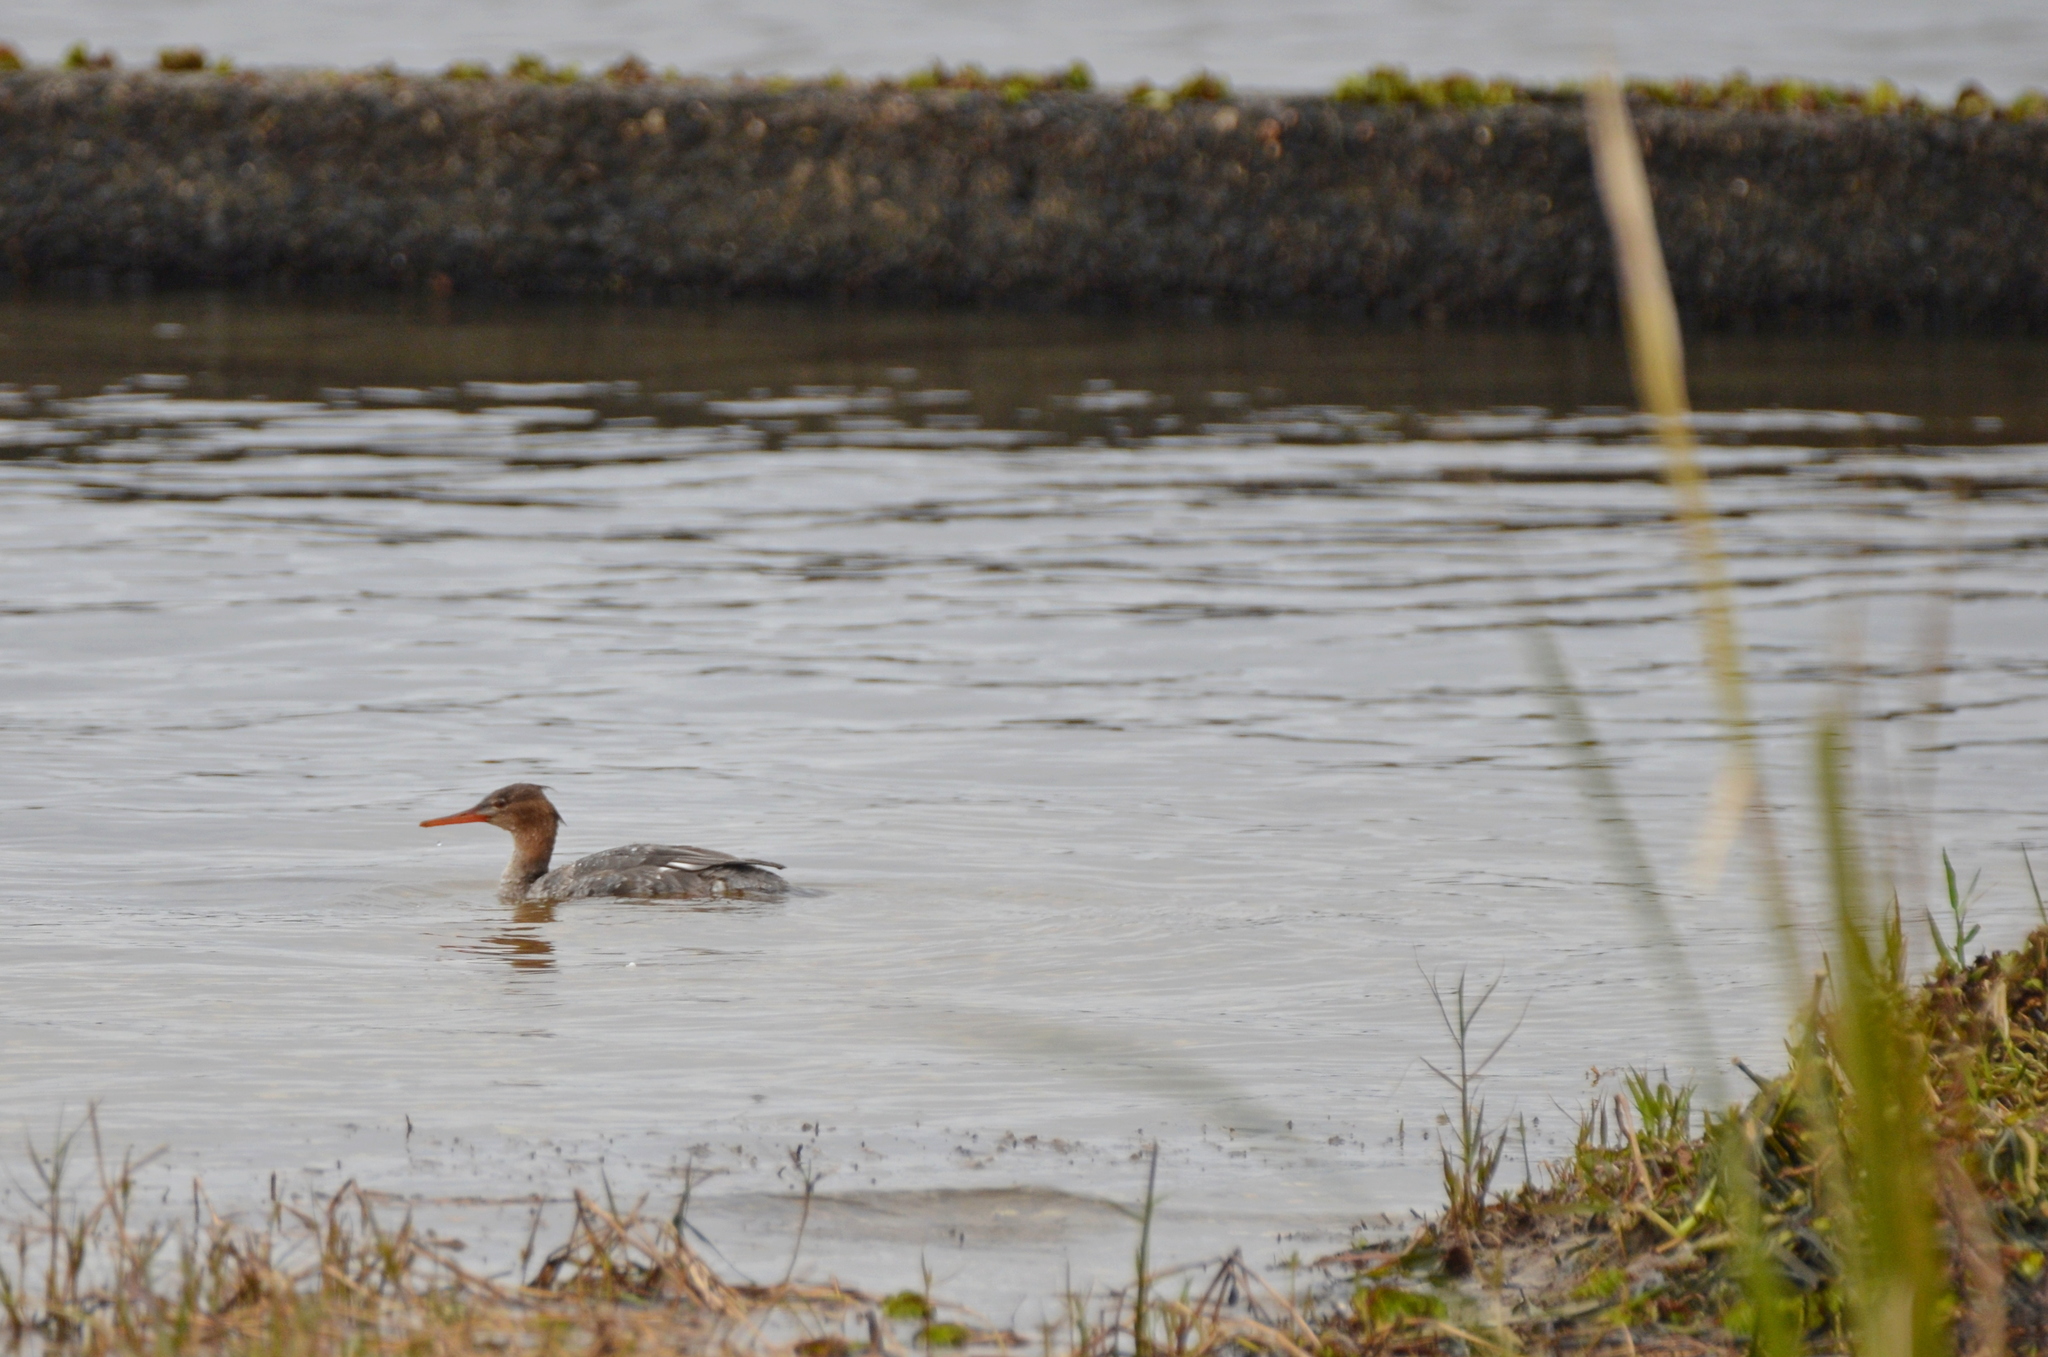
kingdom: Animalia
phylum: Chordata
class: Aves
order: Anseriformes
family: Anatidae
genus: Mergus
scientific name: Mergus serrator
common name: Red-breasted merganser
